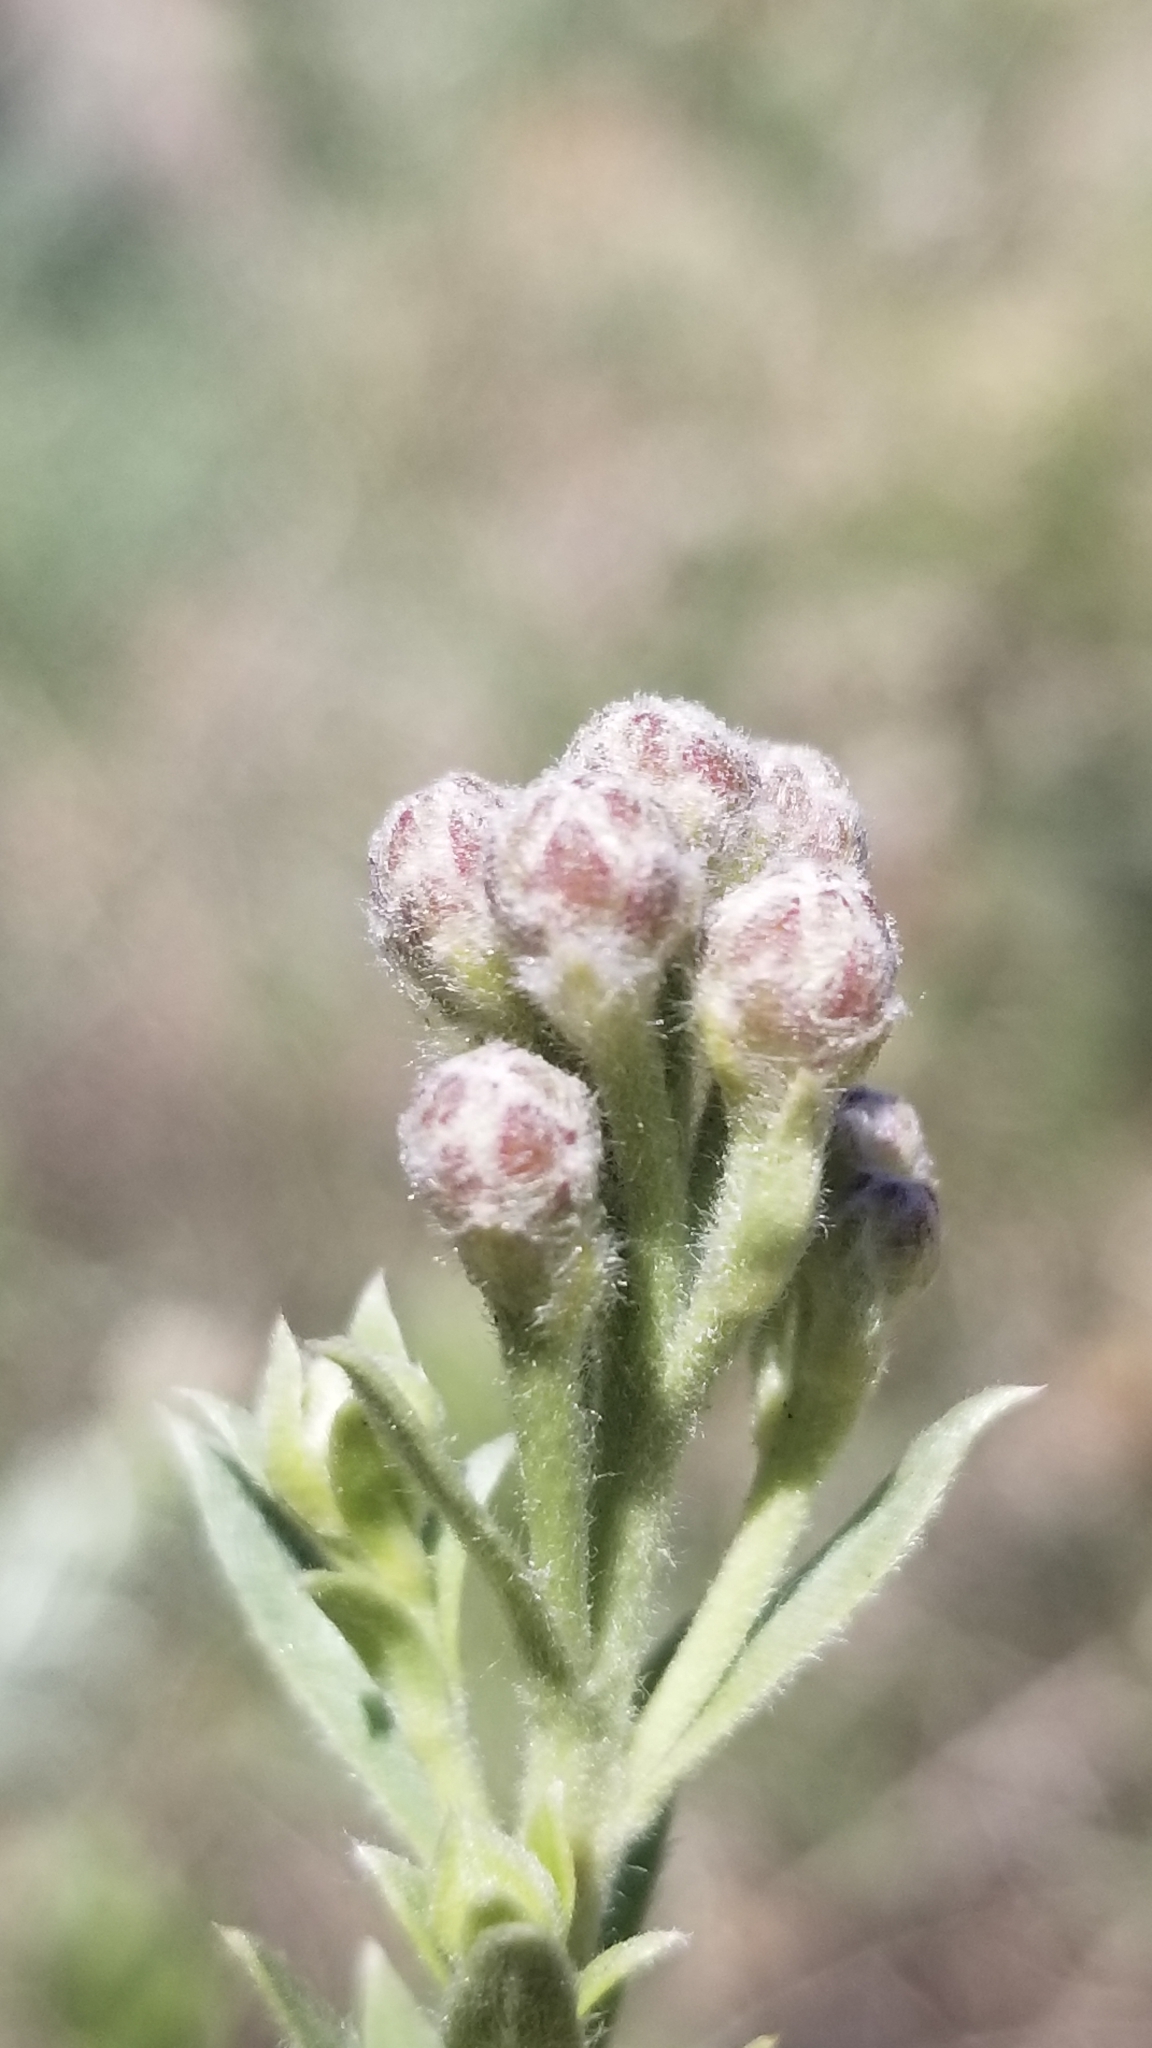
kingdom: Plantae
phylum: Tracheophyta
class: Magnoliopsida
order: Asterales
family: Asteraceae
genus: Pluchea
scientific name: Pluchea sericea
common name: Arrow-weed
